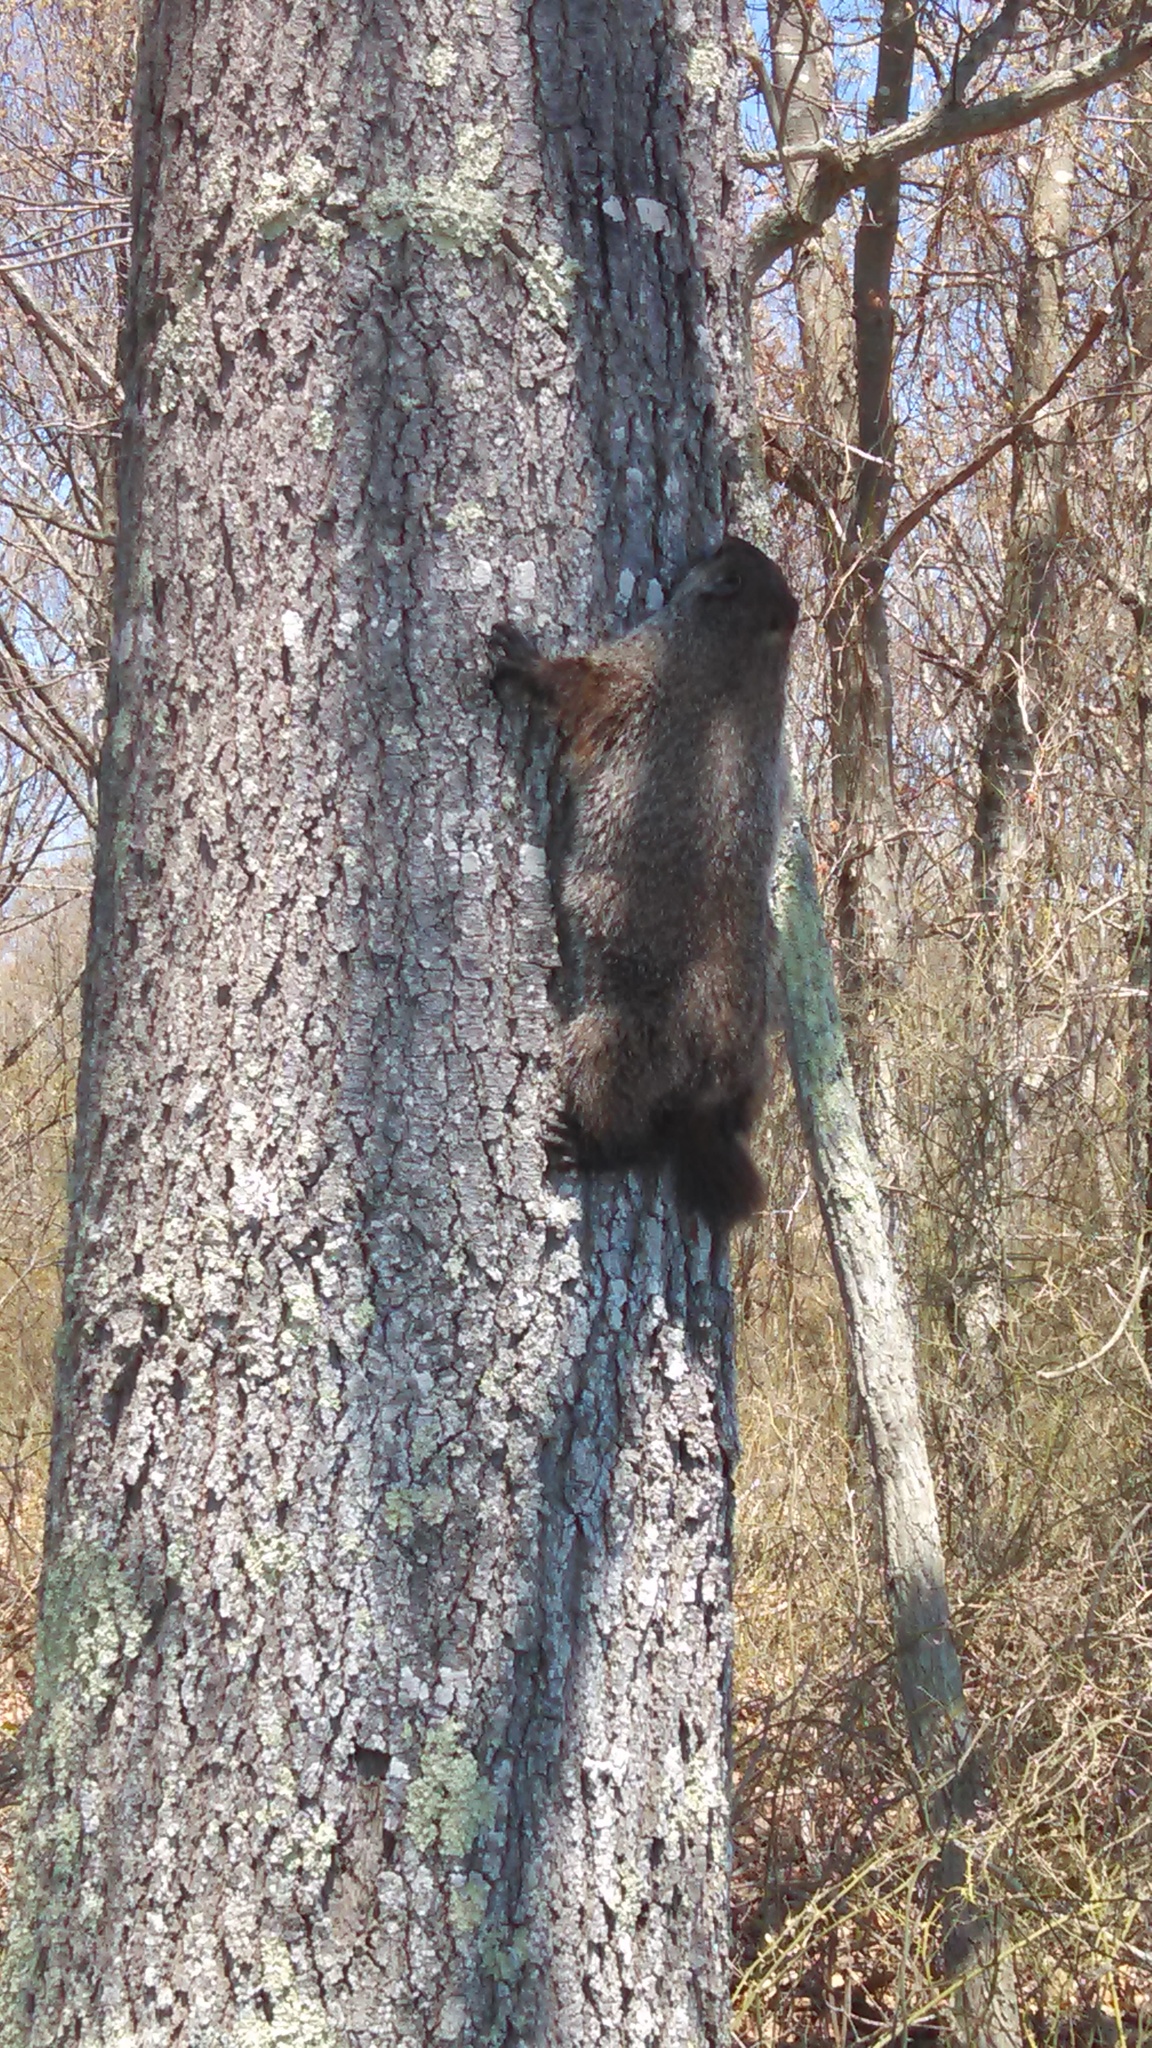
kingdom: Animalia
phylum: Chordata
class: Mammalia
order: Rodentia
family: Sciuridae
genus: Marmota
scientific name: Marmota monax
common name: Groundhog
